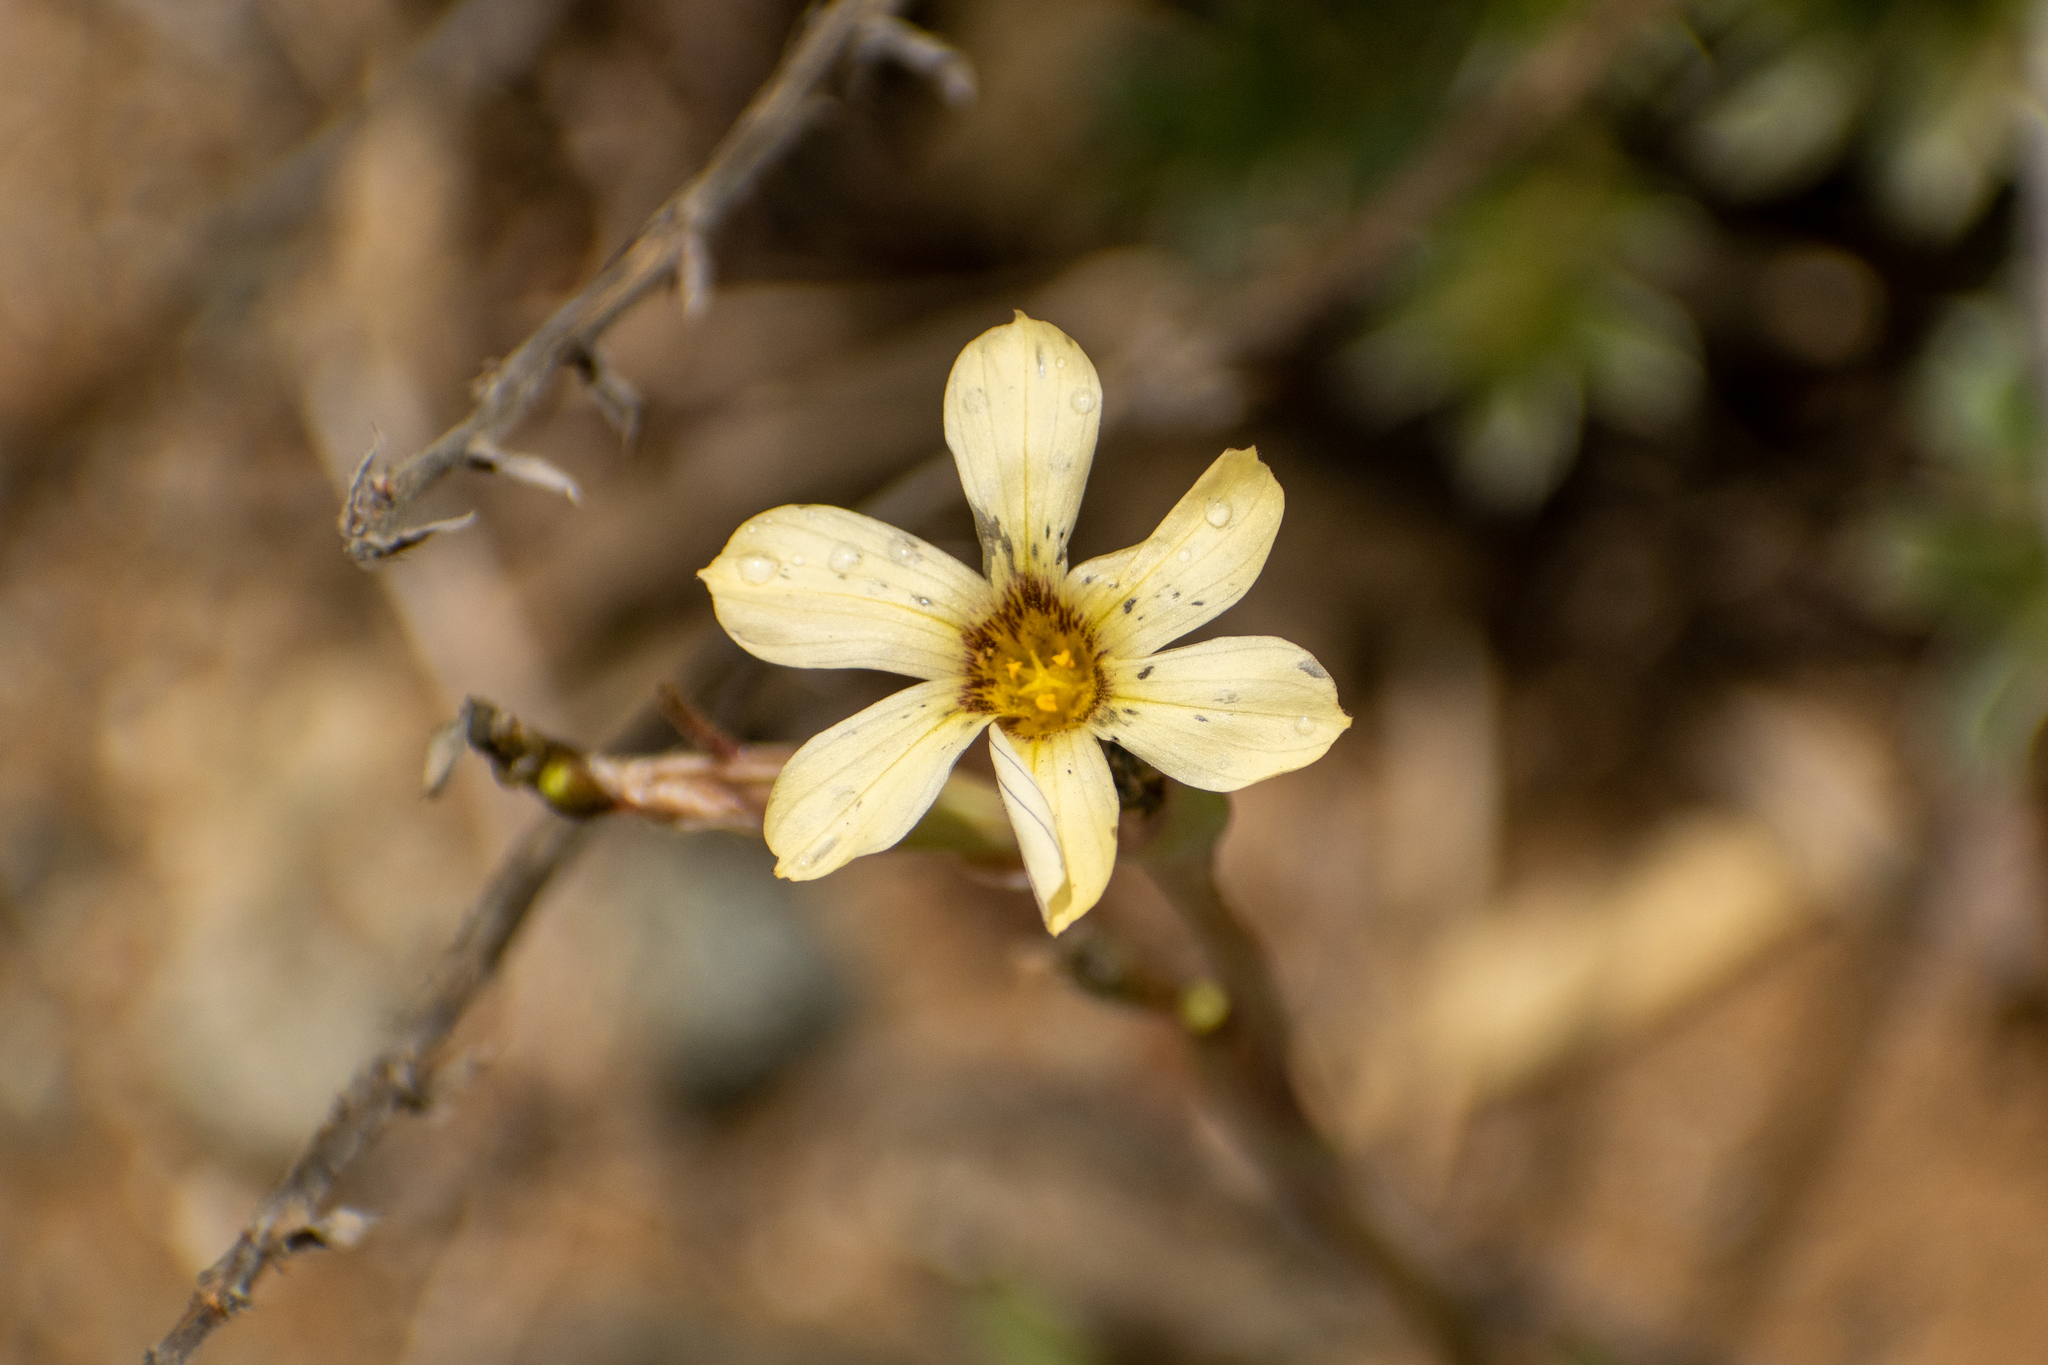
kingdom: Plantae
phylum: Tracheophyta
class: Liliopsida
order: Asparagales
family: Iridaceae
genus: Sisyrinchium
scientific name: Sisyrinchium arenarium
